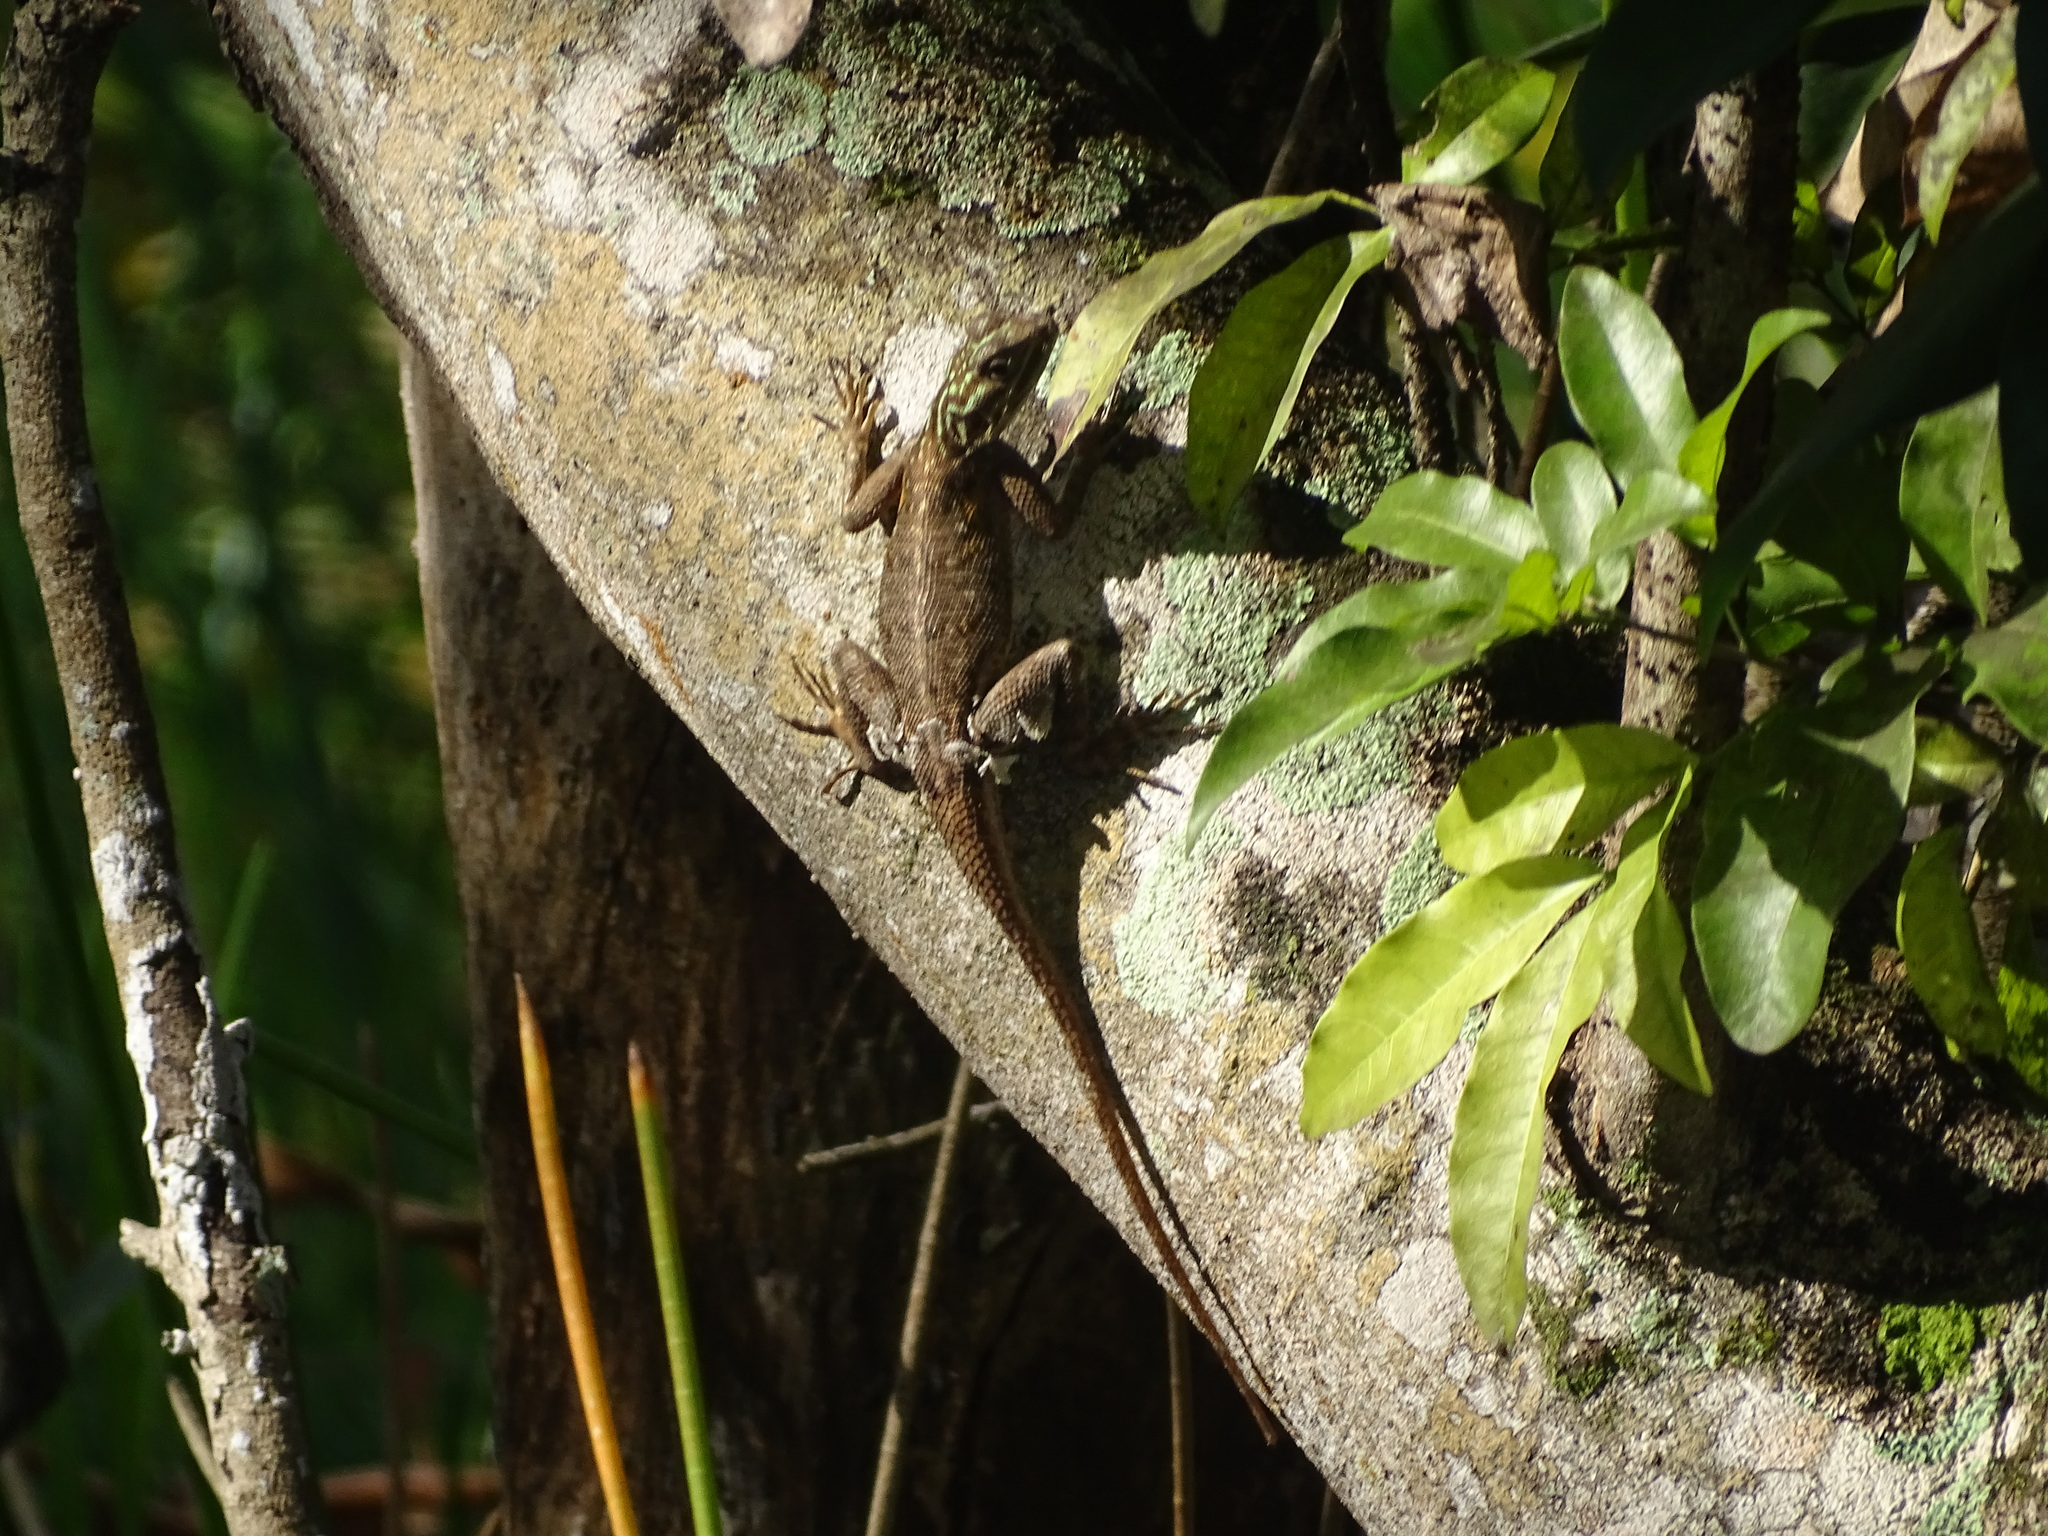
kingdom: Animalia
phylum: Chordata
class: Squamata
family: Agamidae
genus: Agama
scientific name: Agama picticauda
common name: Red-headed agama
